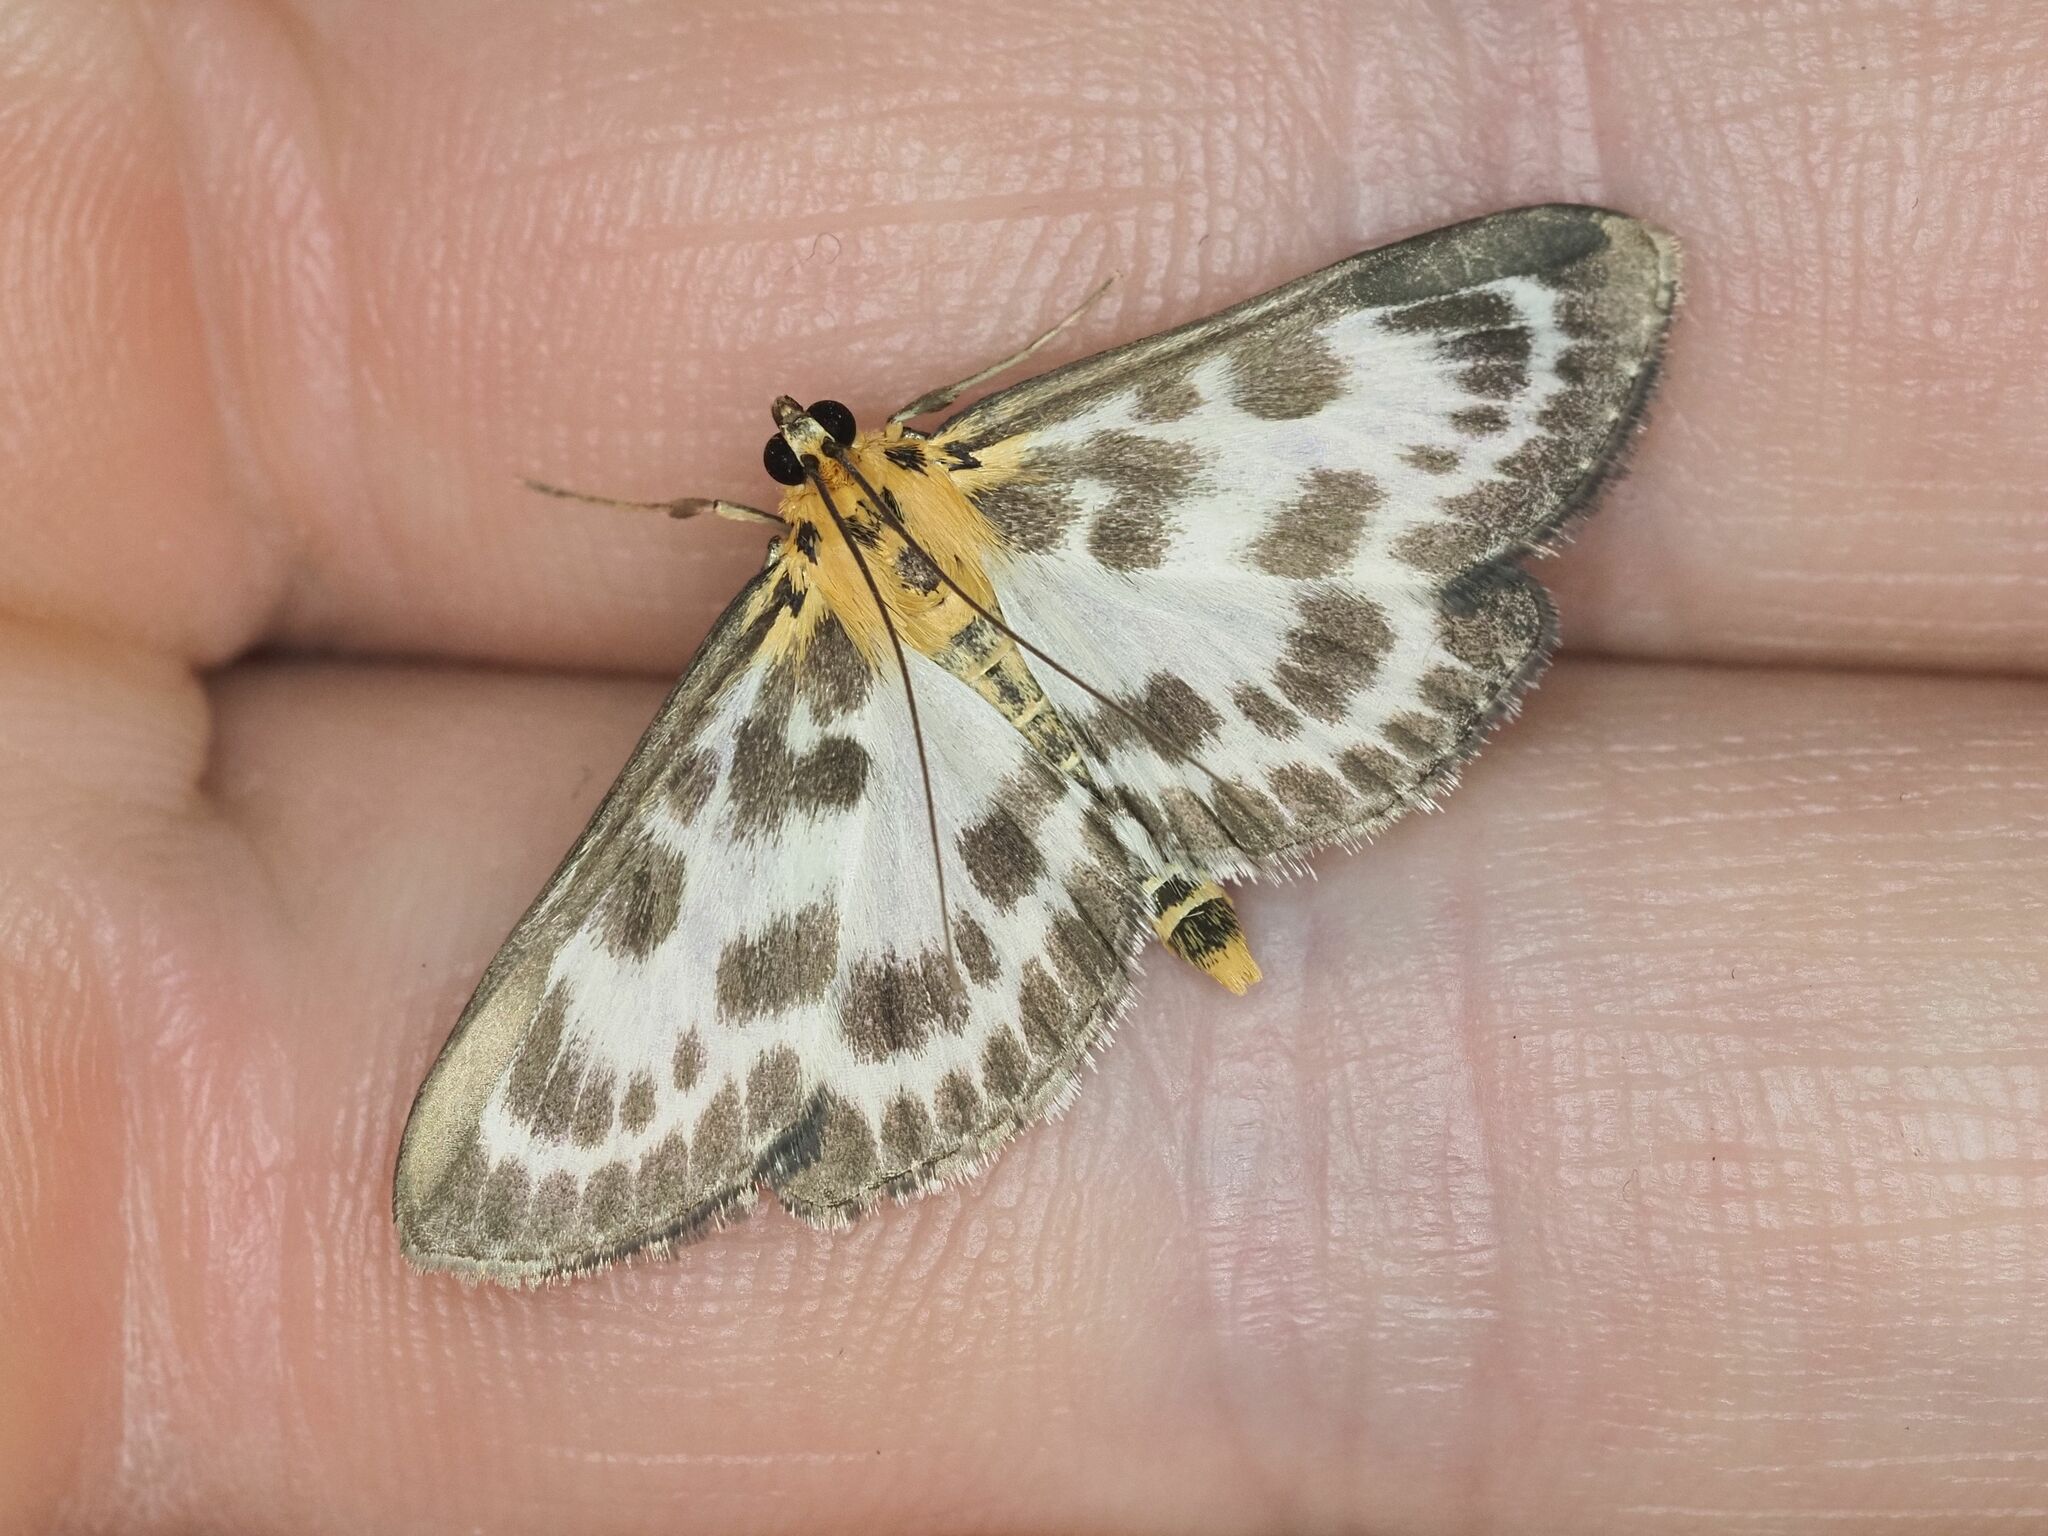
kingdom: Animalia
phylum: Arthropoda
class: Insecta
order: Lepidoptera
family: Crambidae
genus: Anania
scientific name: Anania hortulata
